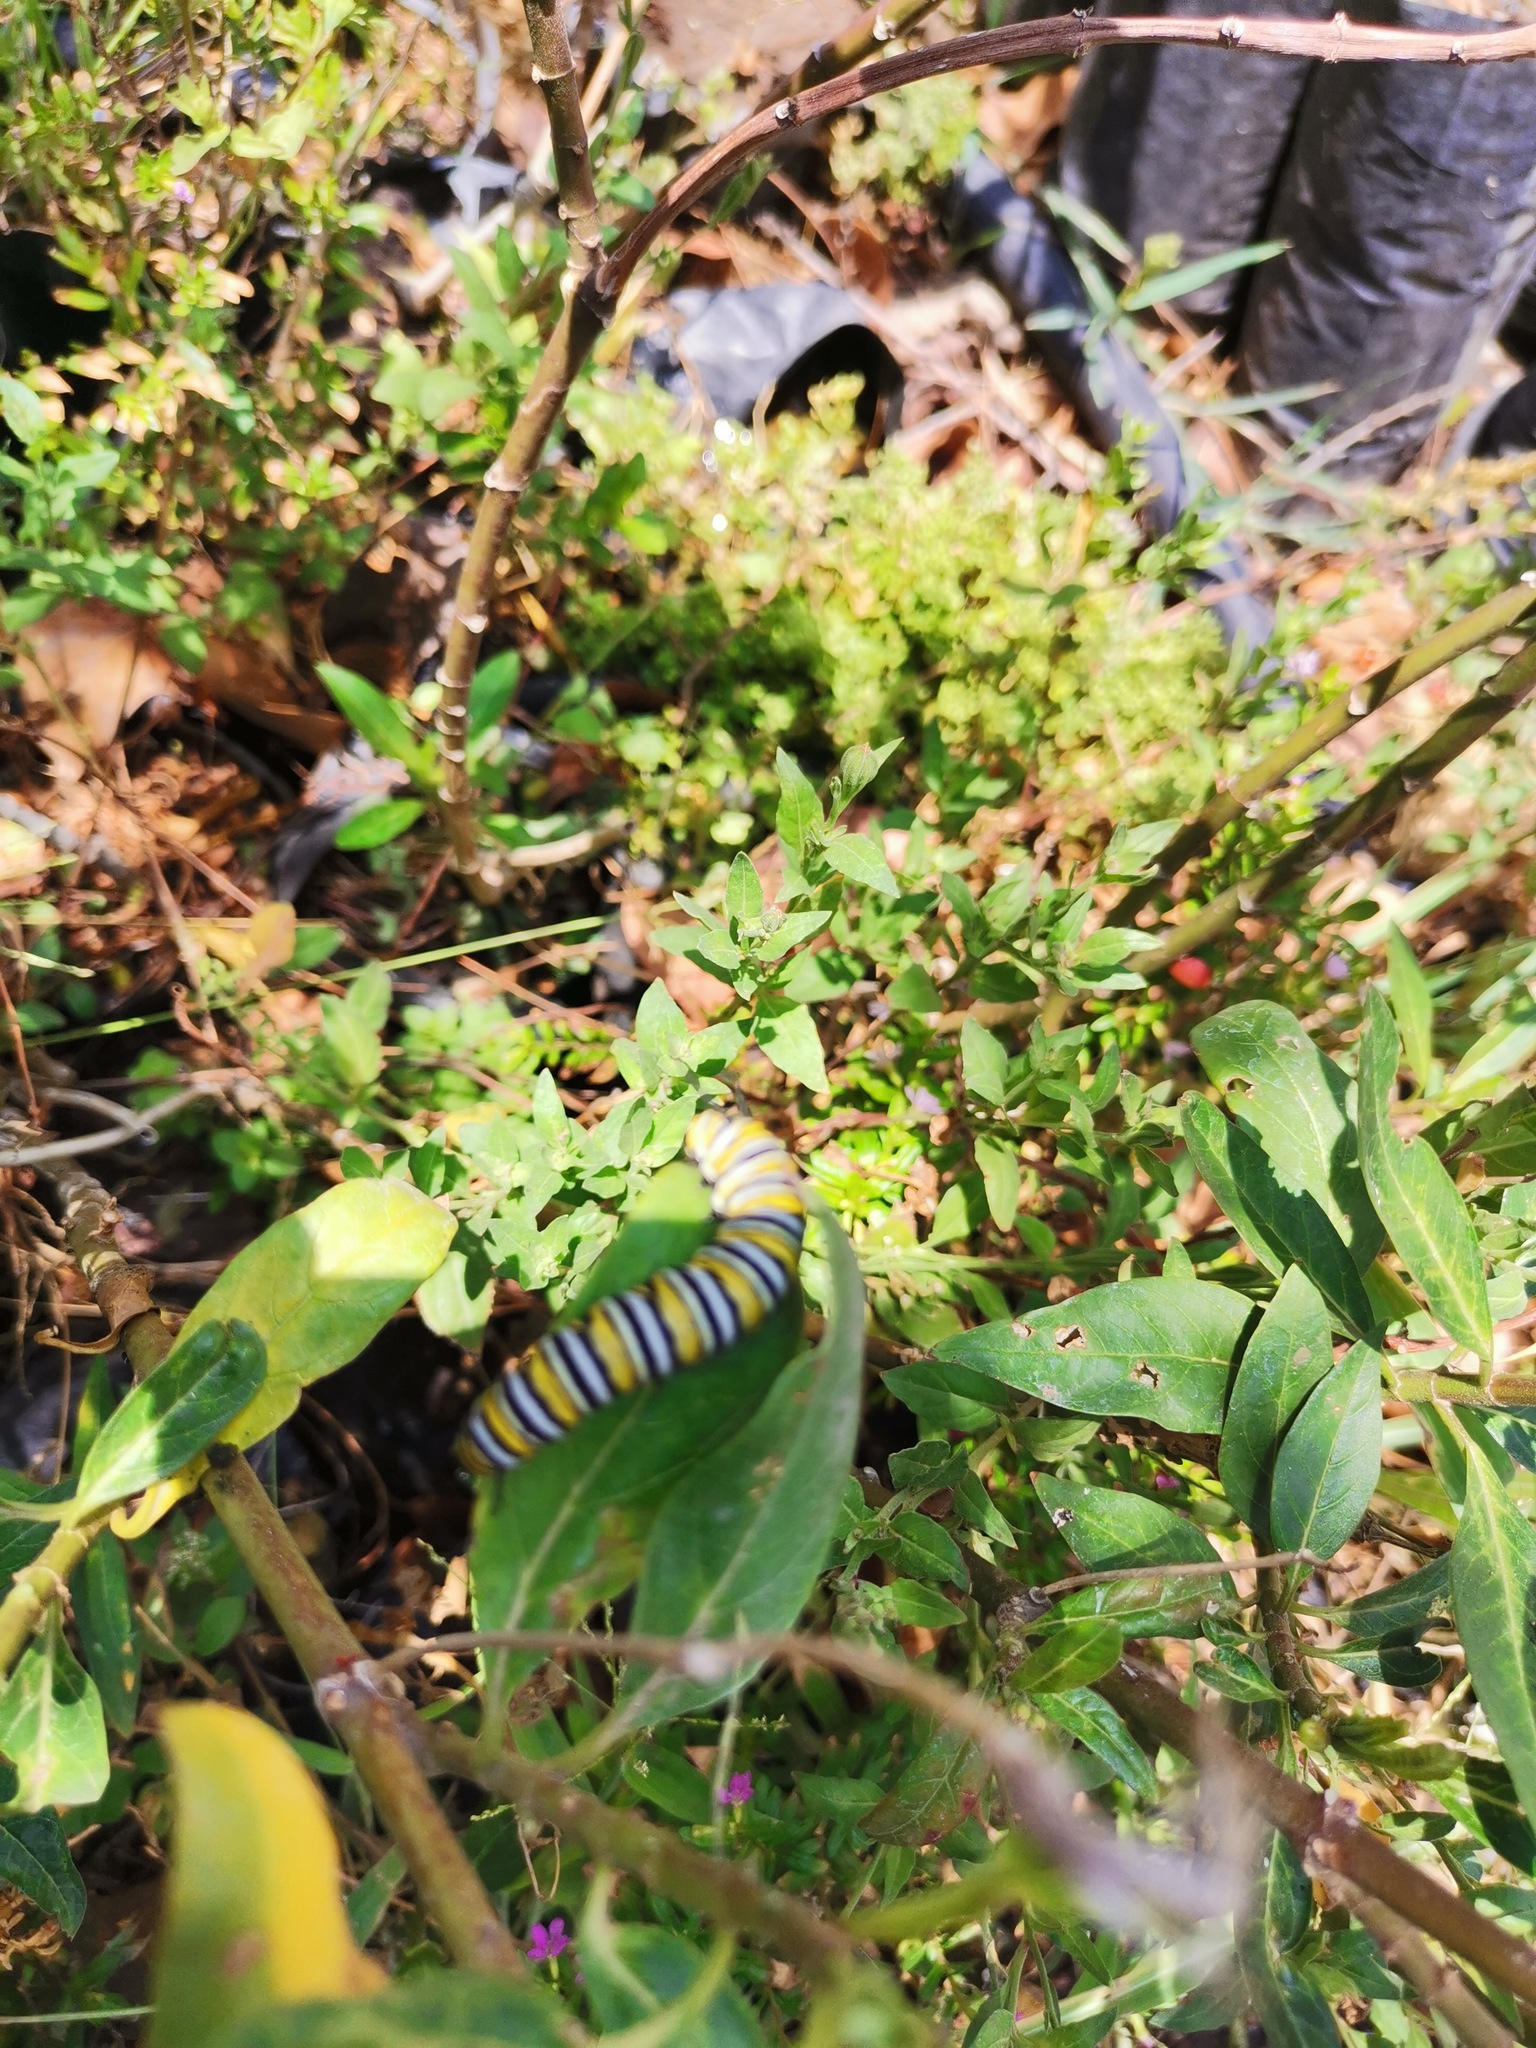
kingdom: Animalia
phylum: Arthropoda
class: Insecta
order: Lepidoptera
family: Nymphalidae
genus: Danaus
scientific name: Danaus plexippus
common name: Monarch
